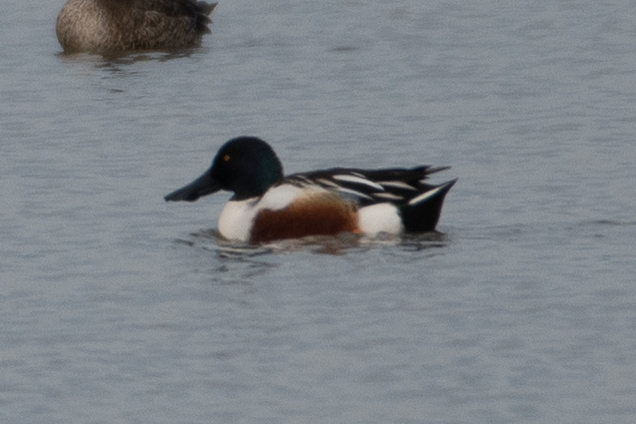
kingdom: Animalia
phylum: Chordata
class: Aves
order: Anseriformes
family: Anatidae
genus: Spatula
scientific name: Spatula clypeata
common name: Northern shoveler
